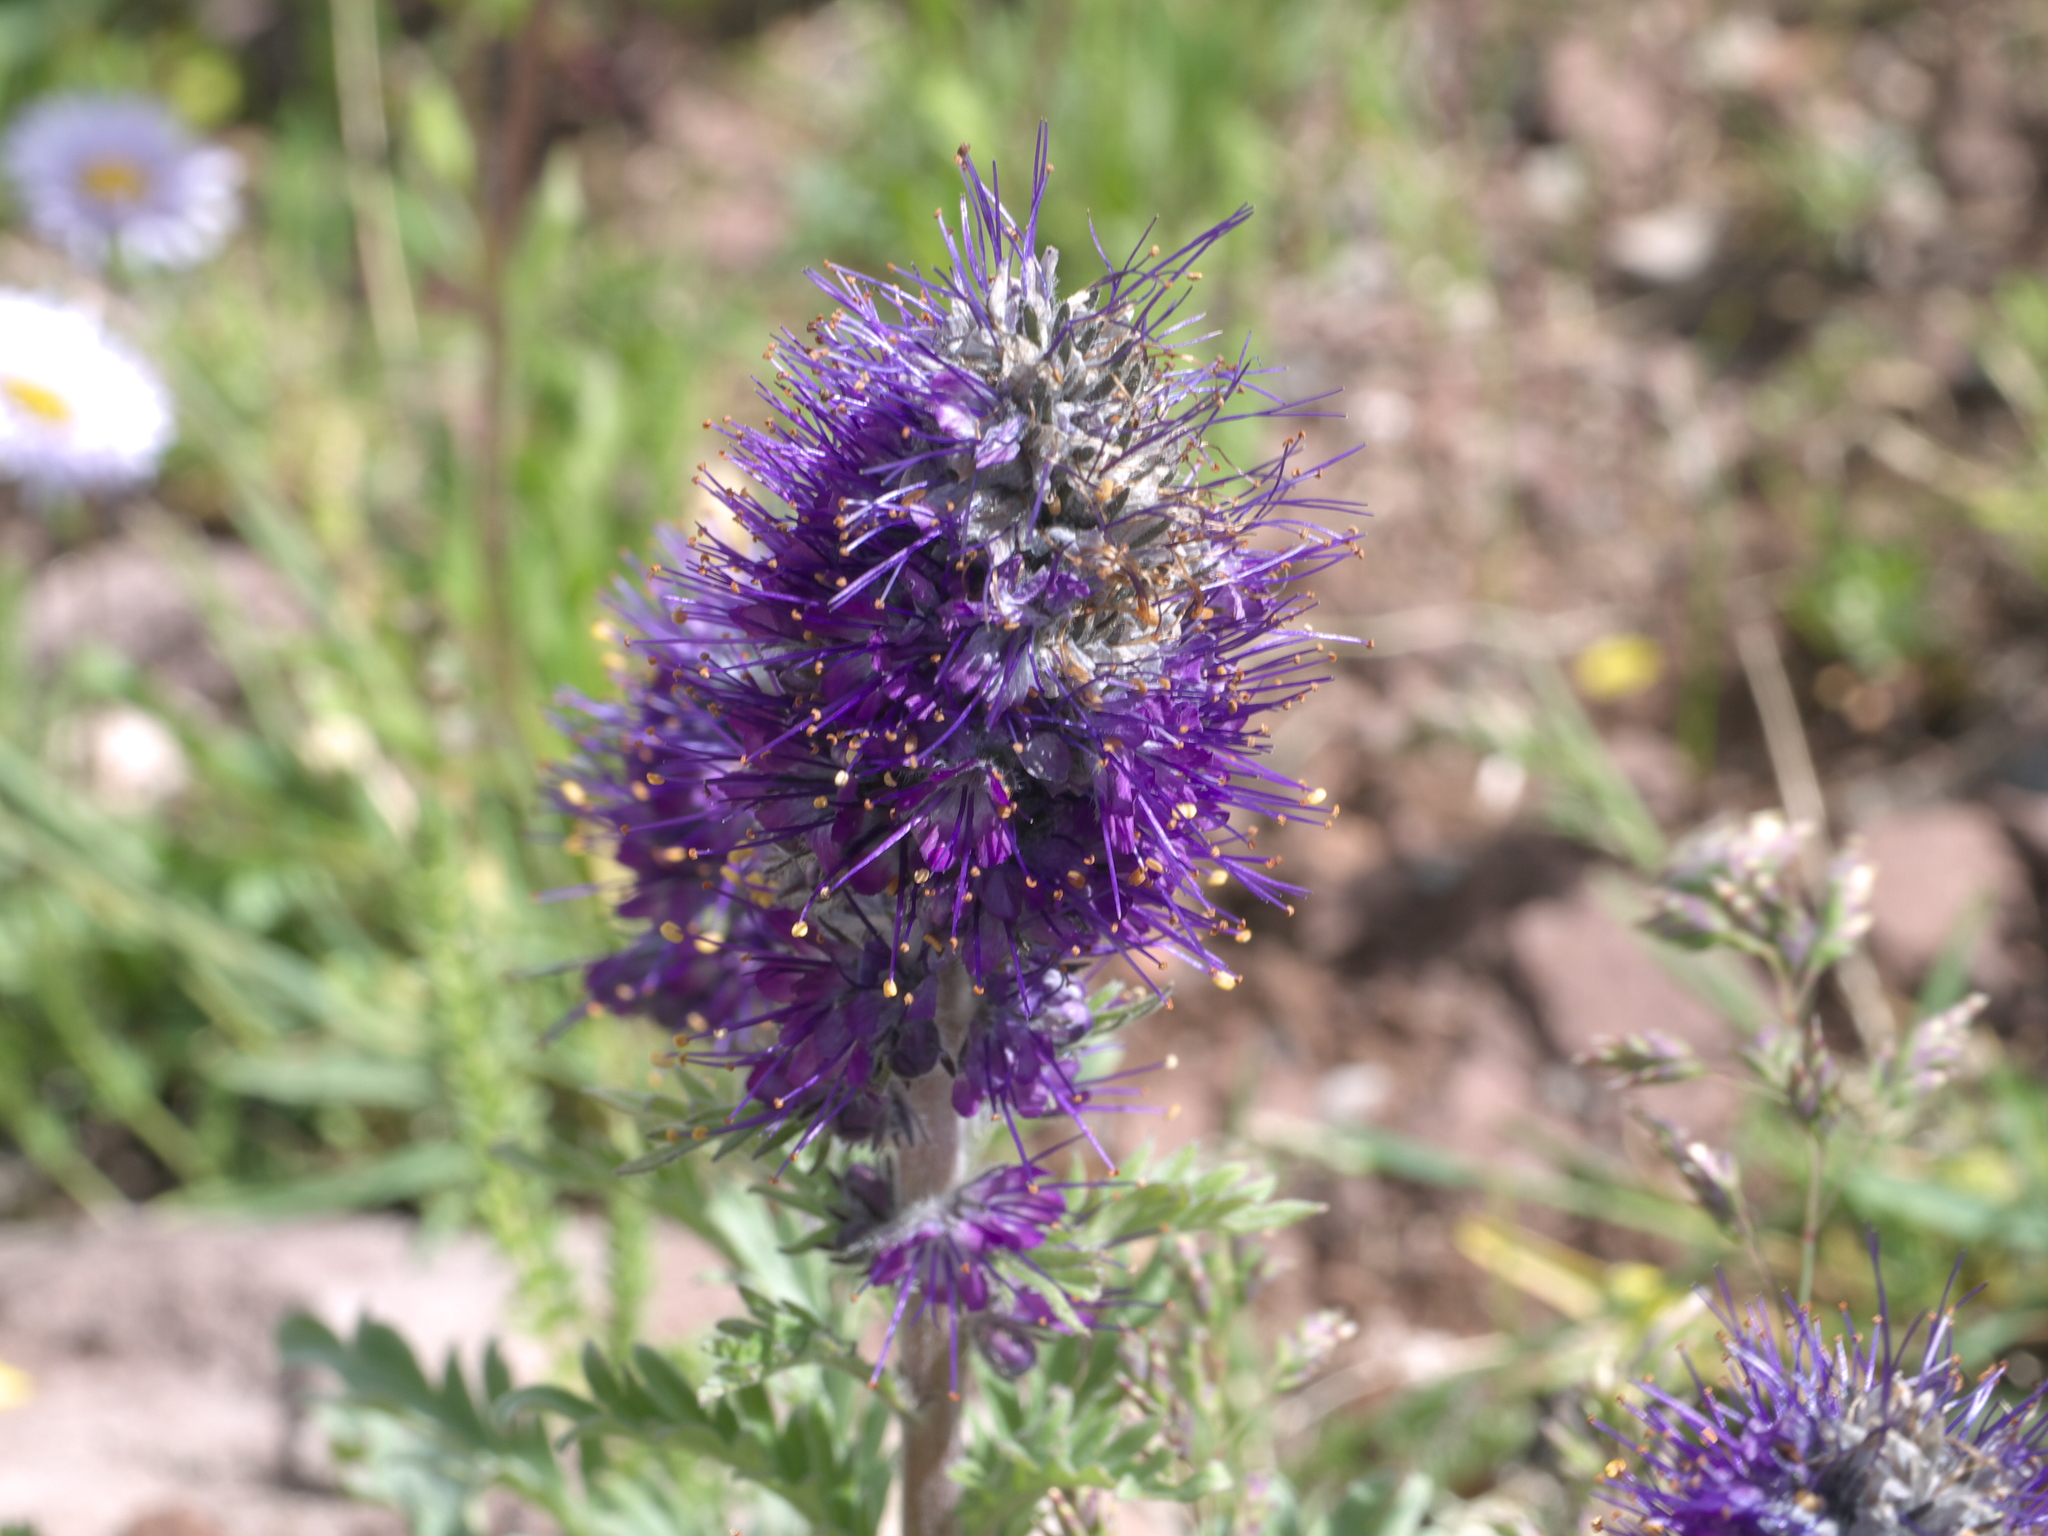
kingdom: Plantae
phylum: Tracheophyta
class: Magnoliopsida
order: Boraginales
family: Hydrophyllaceae
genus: Phacelia
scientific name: Phacelia sericea
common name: Silky phacelia
